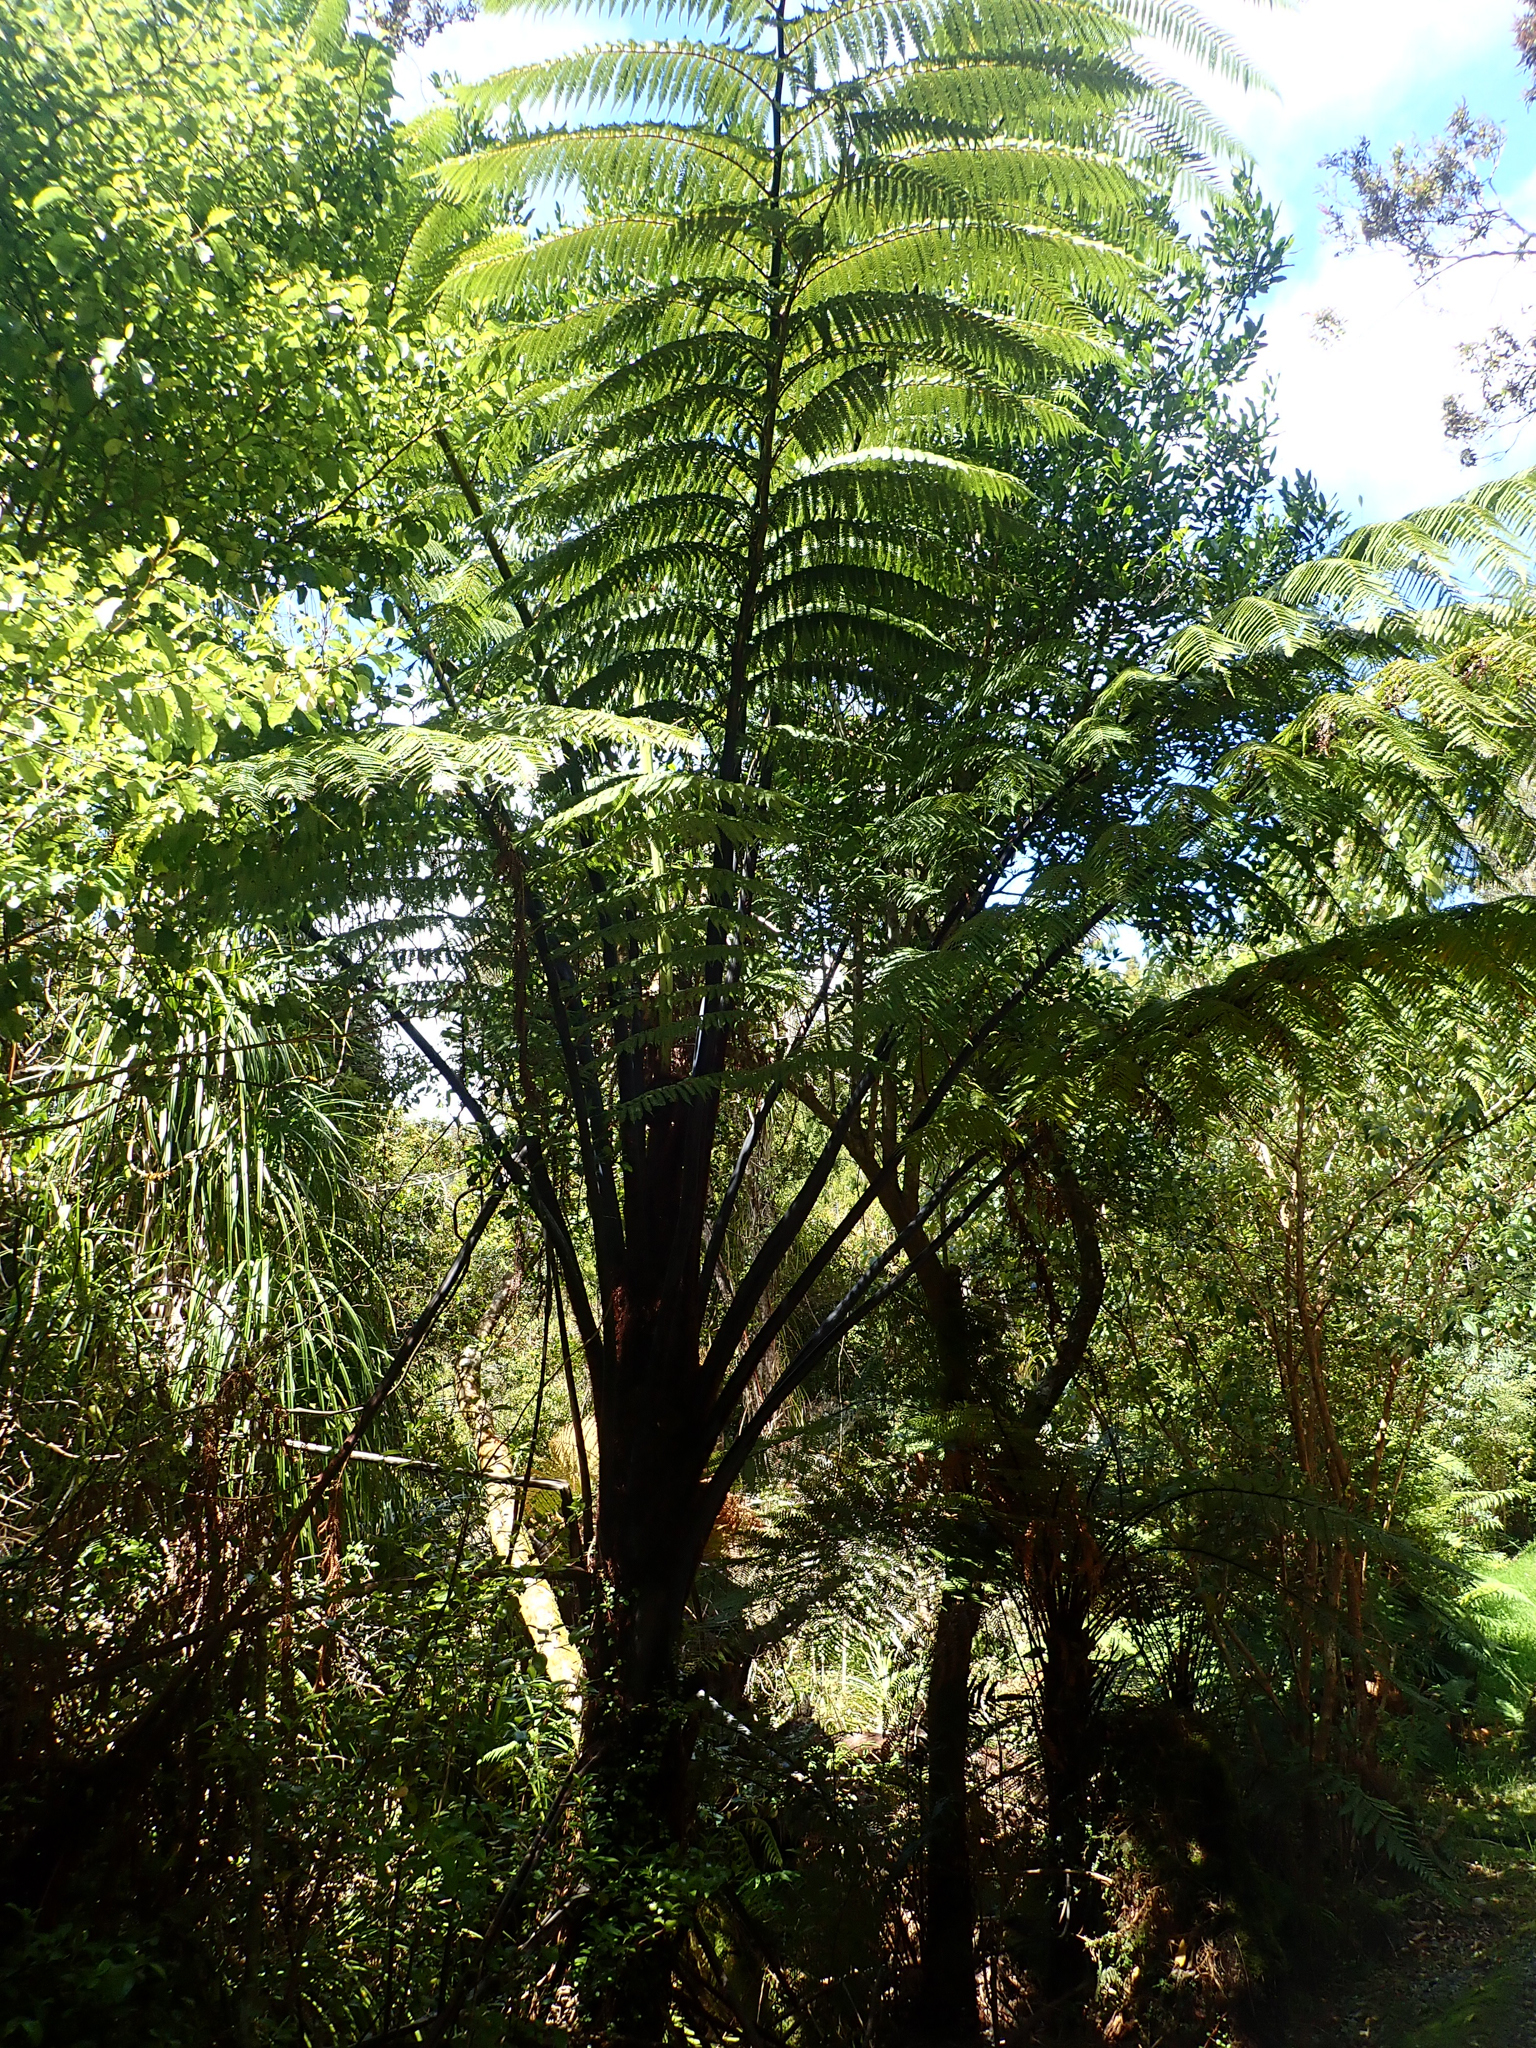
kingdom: Plantae
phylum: Tracheophyta
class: Polypodiopsida
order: Cyatheales
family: Cyatheaceae
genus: Sphaeropteris
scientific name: Sphaeropteris medullaris
